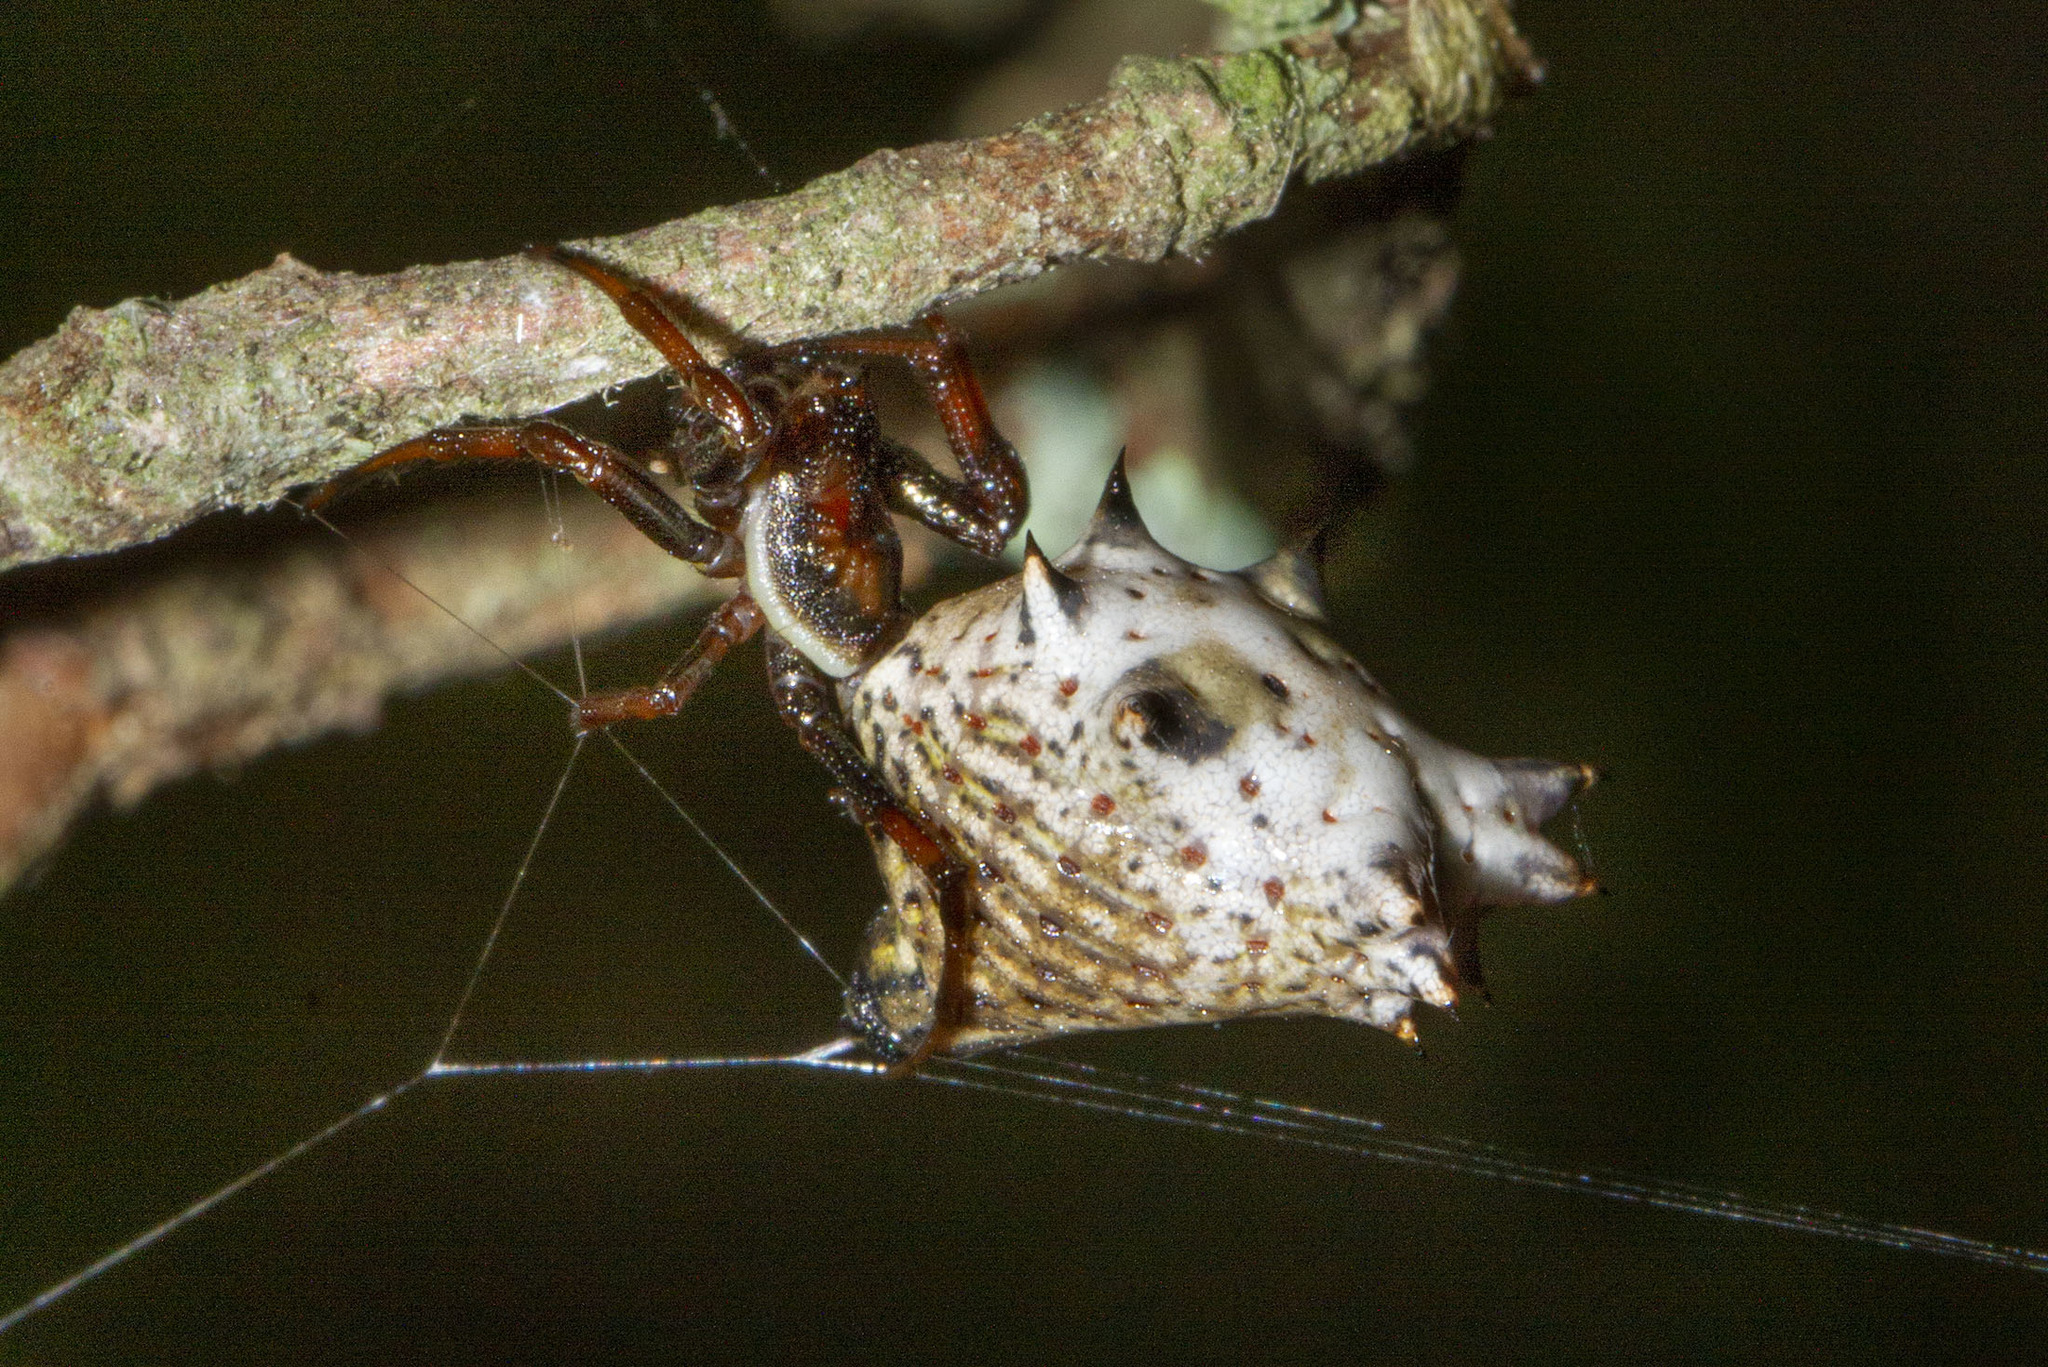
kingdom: Animalia
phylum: Arthropoda
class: Arachnida
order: Araneae
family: Araneidae
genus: Micrathena
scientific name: Micrathena gracilis
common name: Orb weavers
